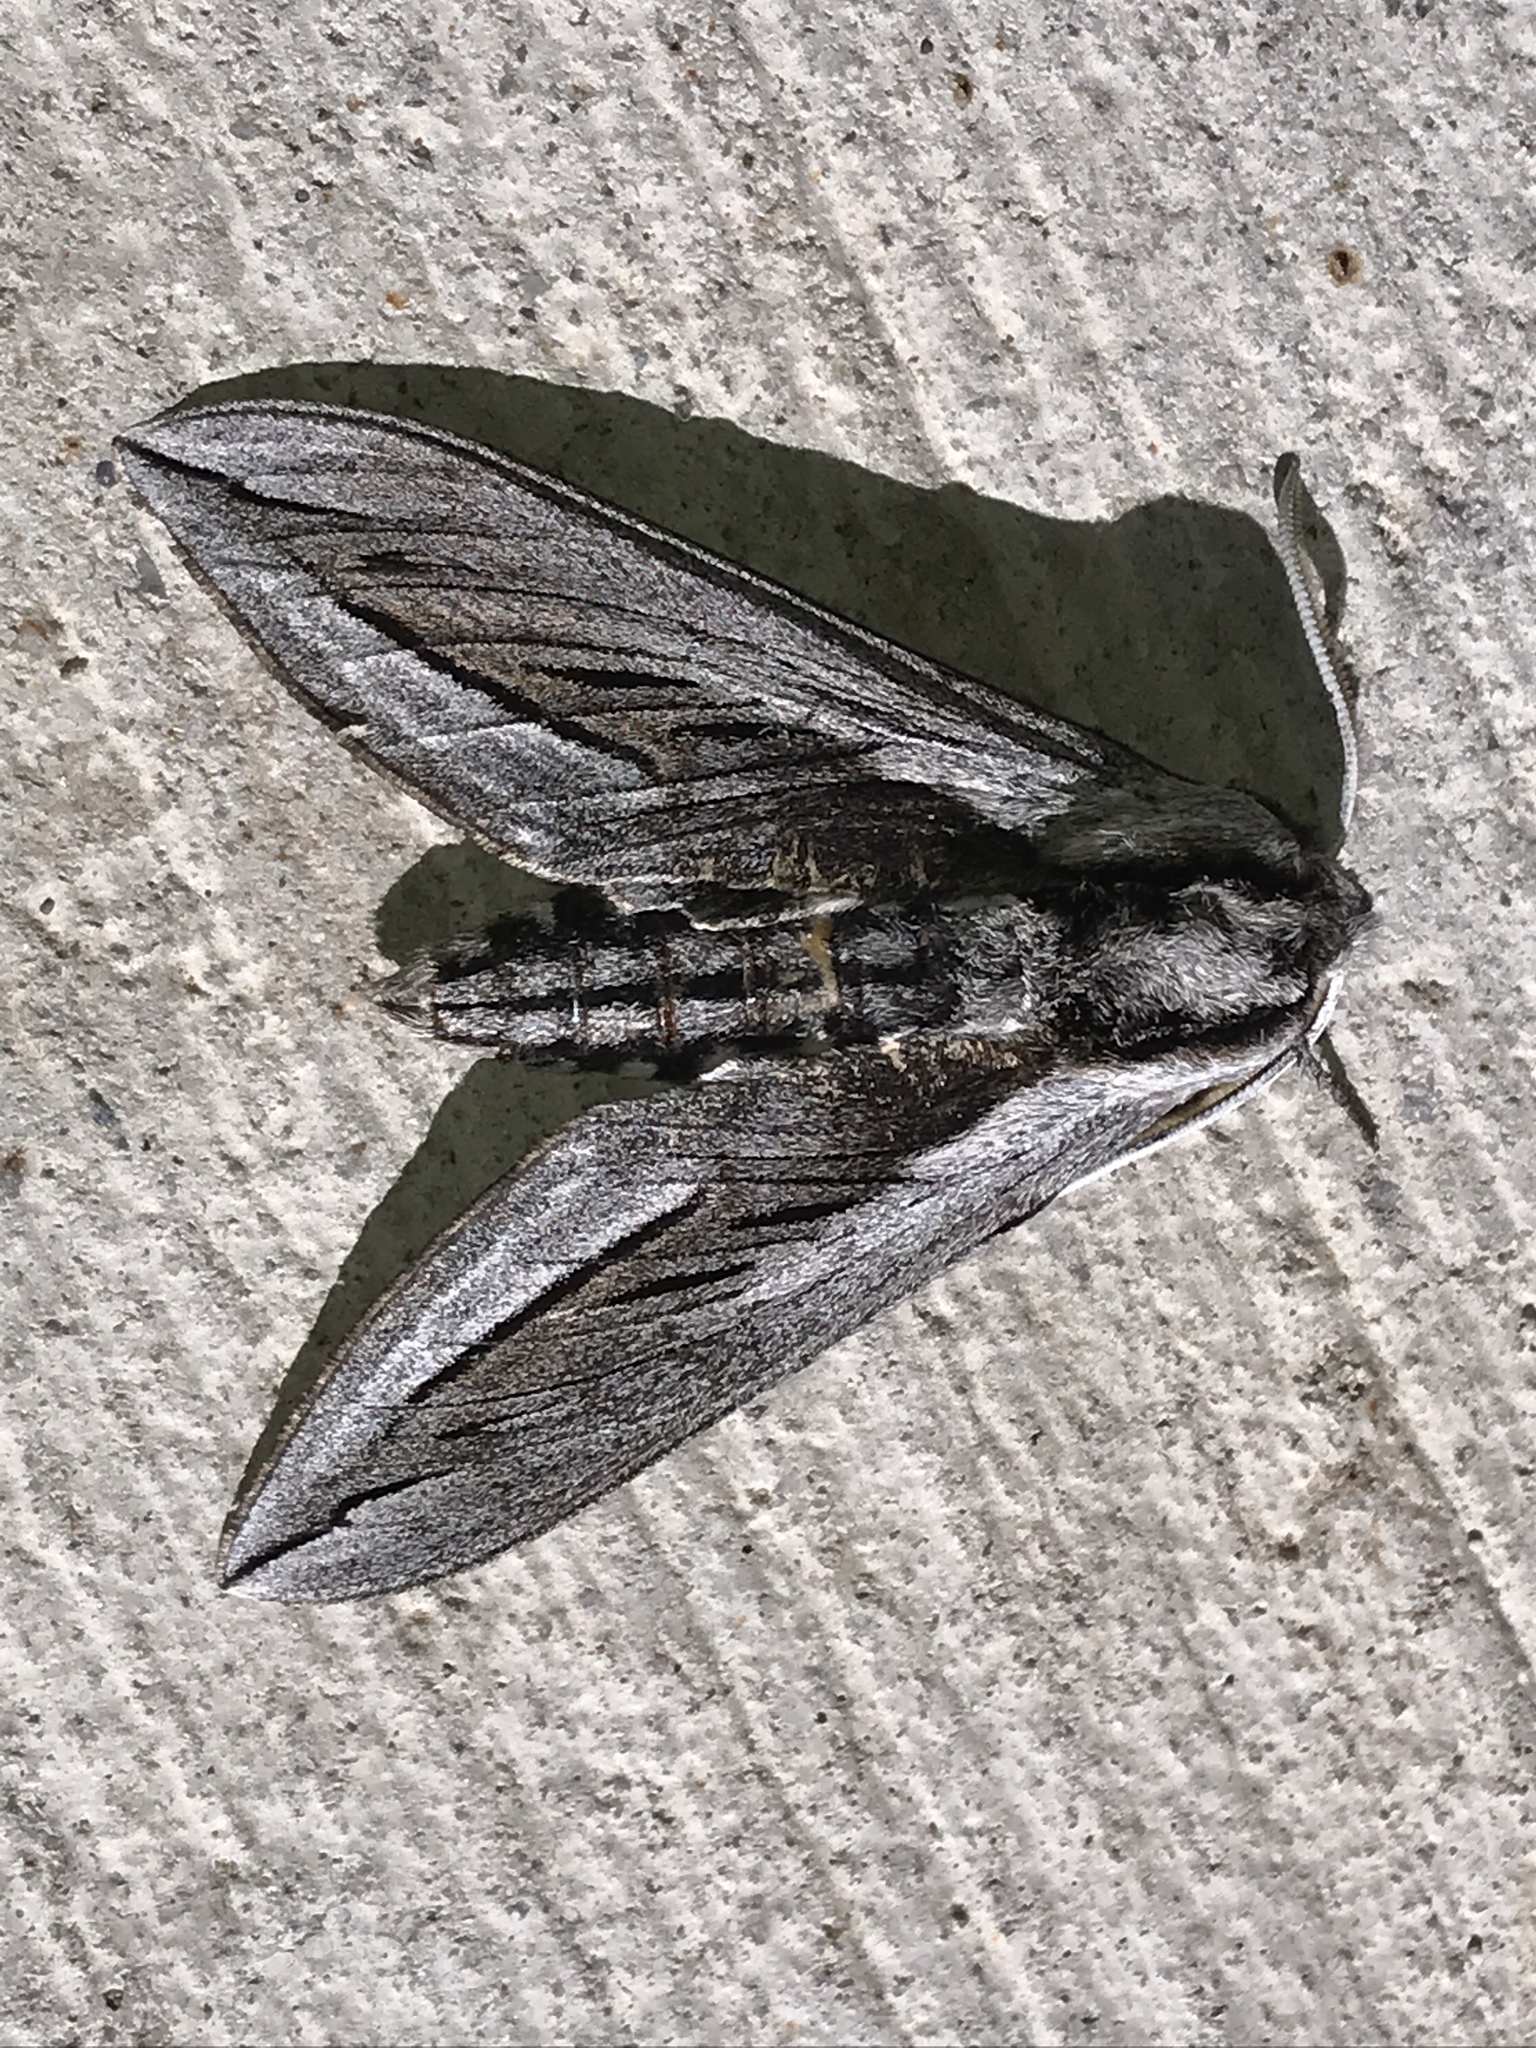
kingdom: Animalia
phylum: Arthropoda
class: Insecta
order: Lepidoptera
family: Sphingidae
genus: Sphinx
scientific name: Sphinx vashti
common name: Snowberry sphinx
